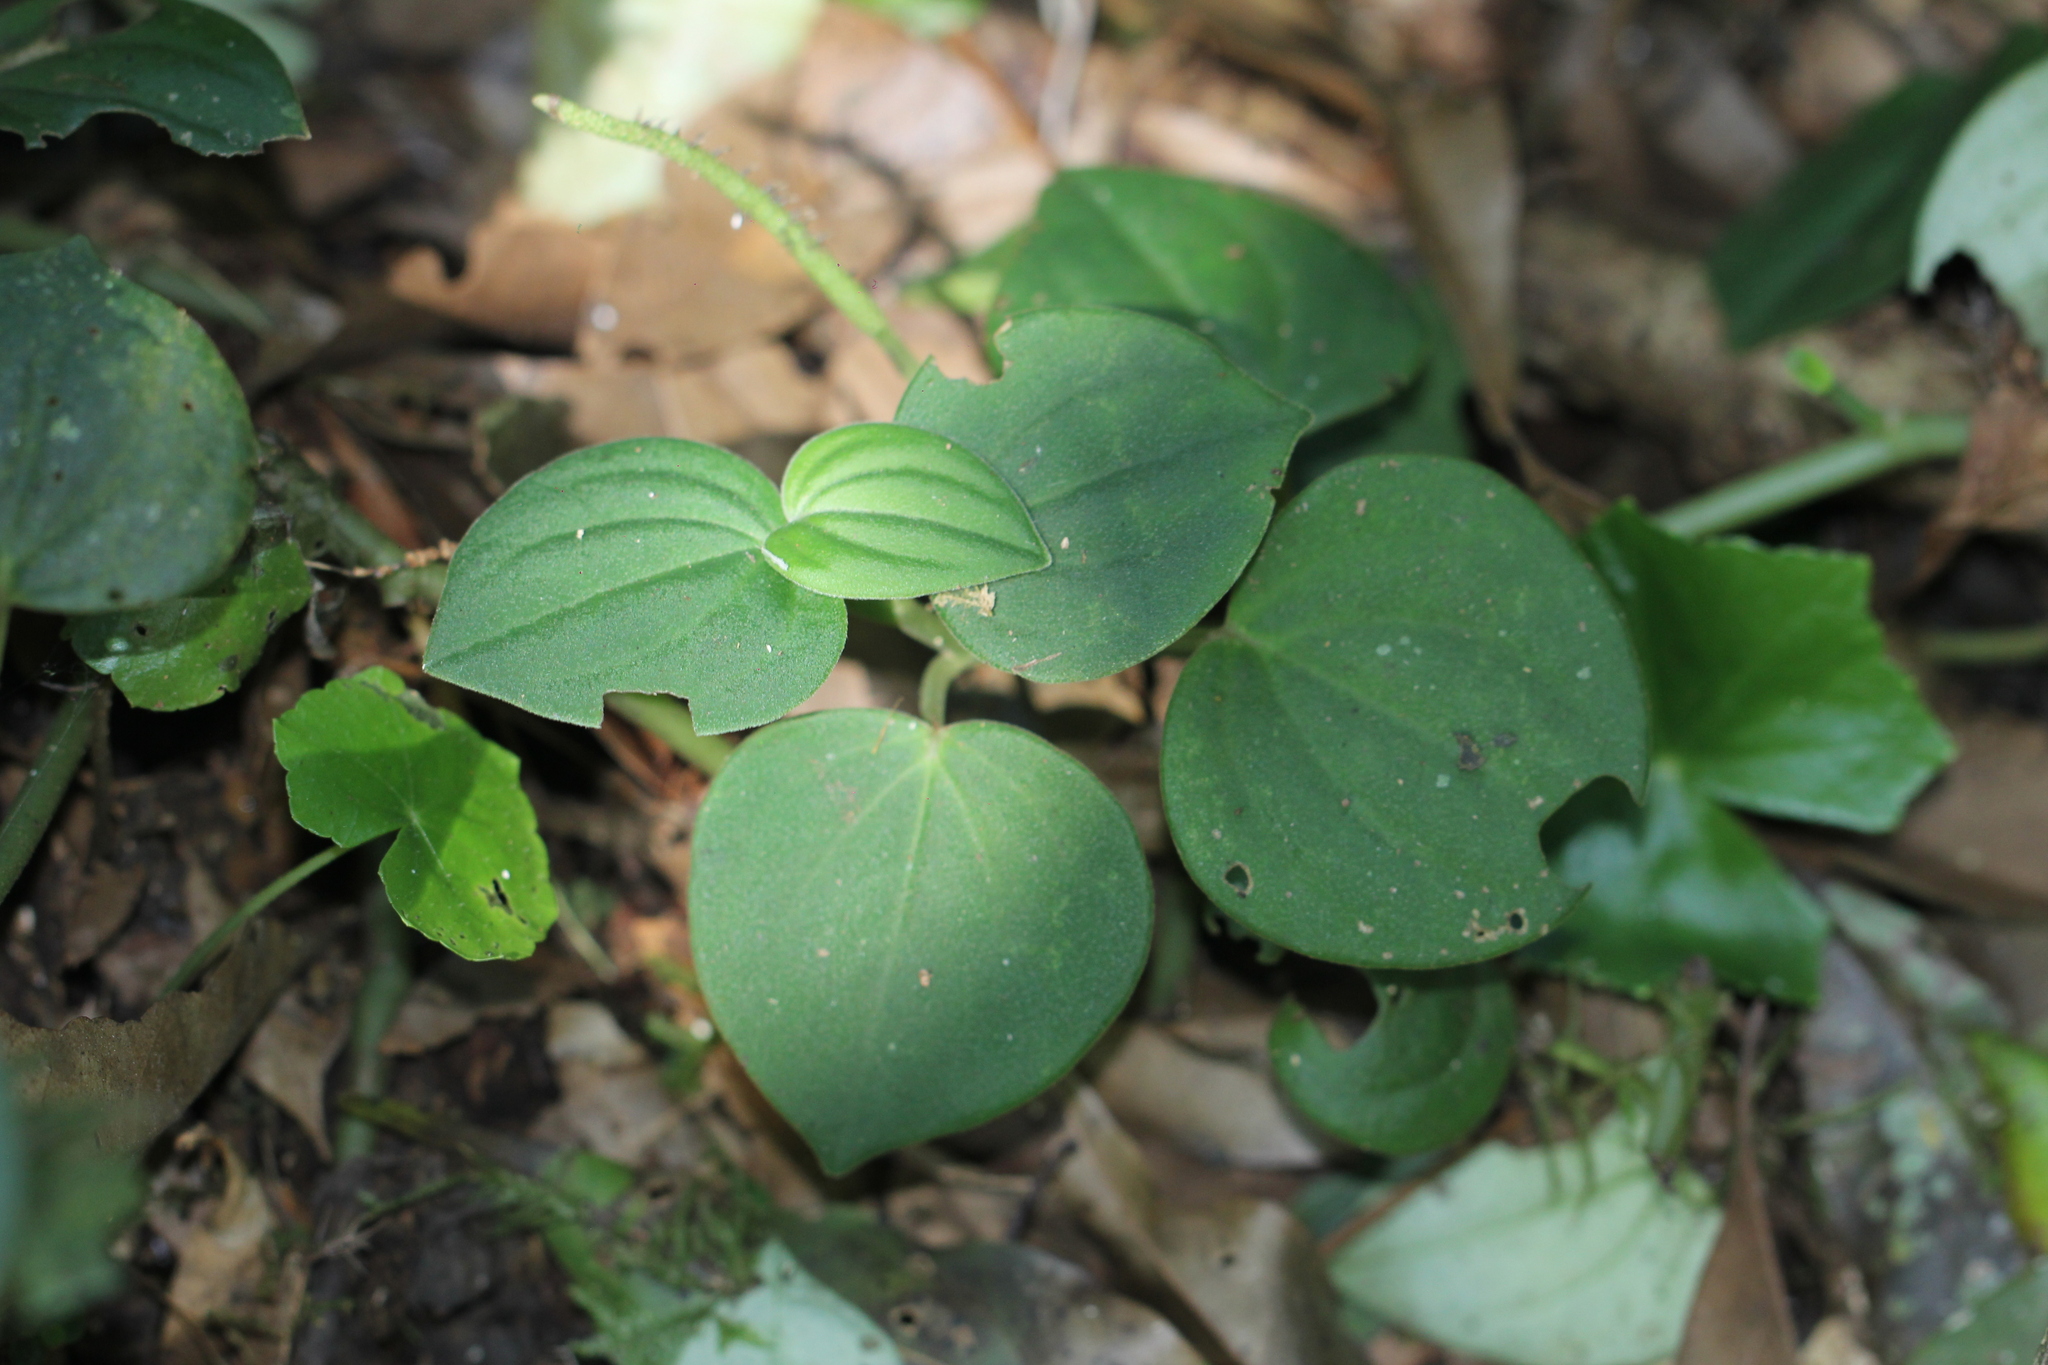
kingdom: Plantae
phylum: Tracheophyta
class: Magnoliopsida
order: Piperales
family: Piperaceae
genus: Peperomia
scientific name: Peperomia urocarpa
